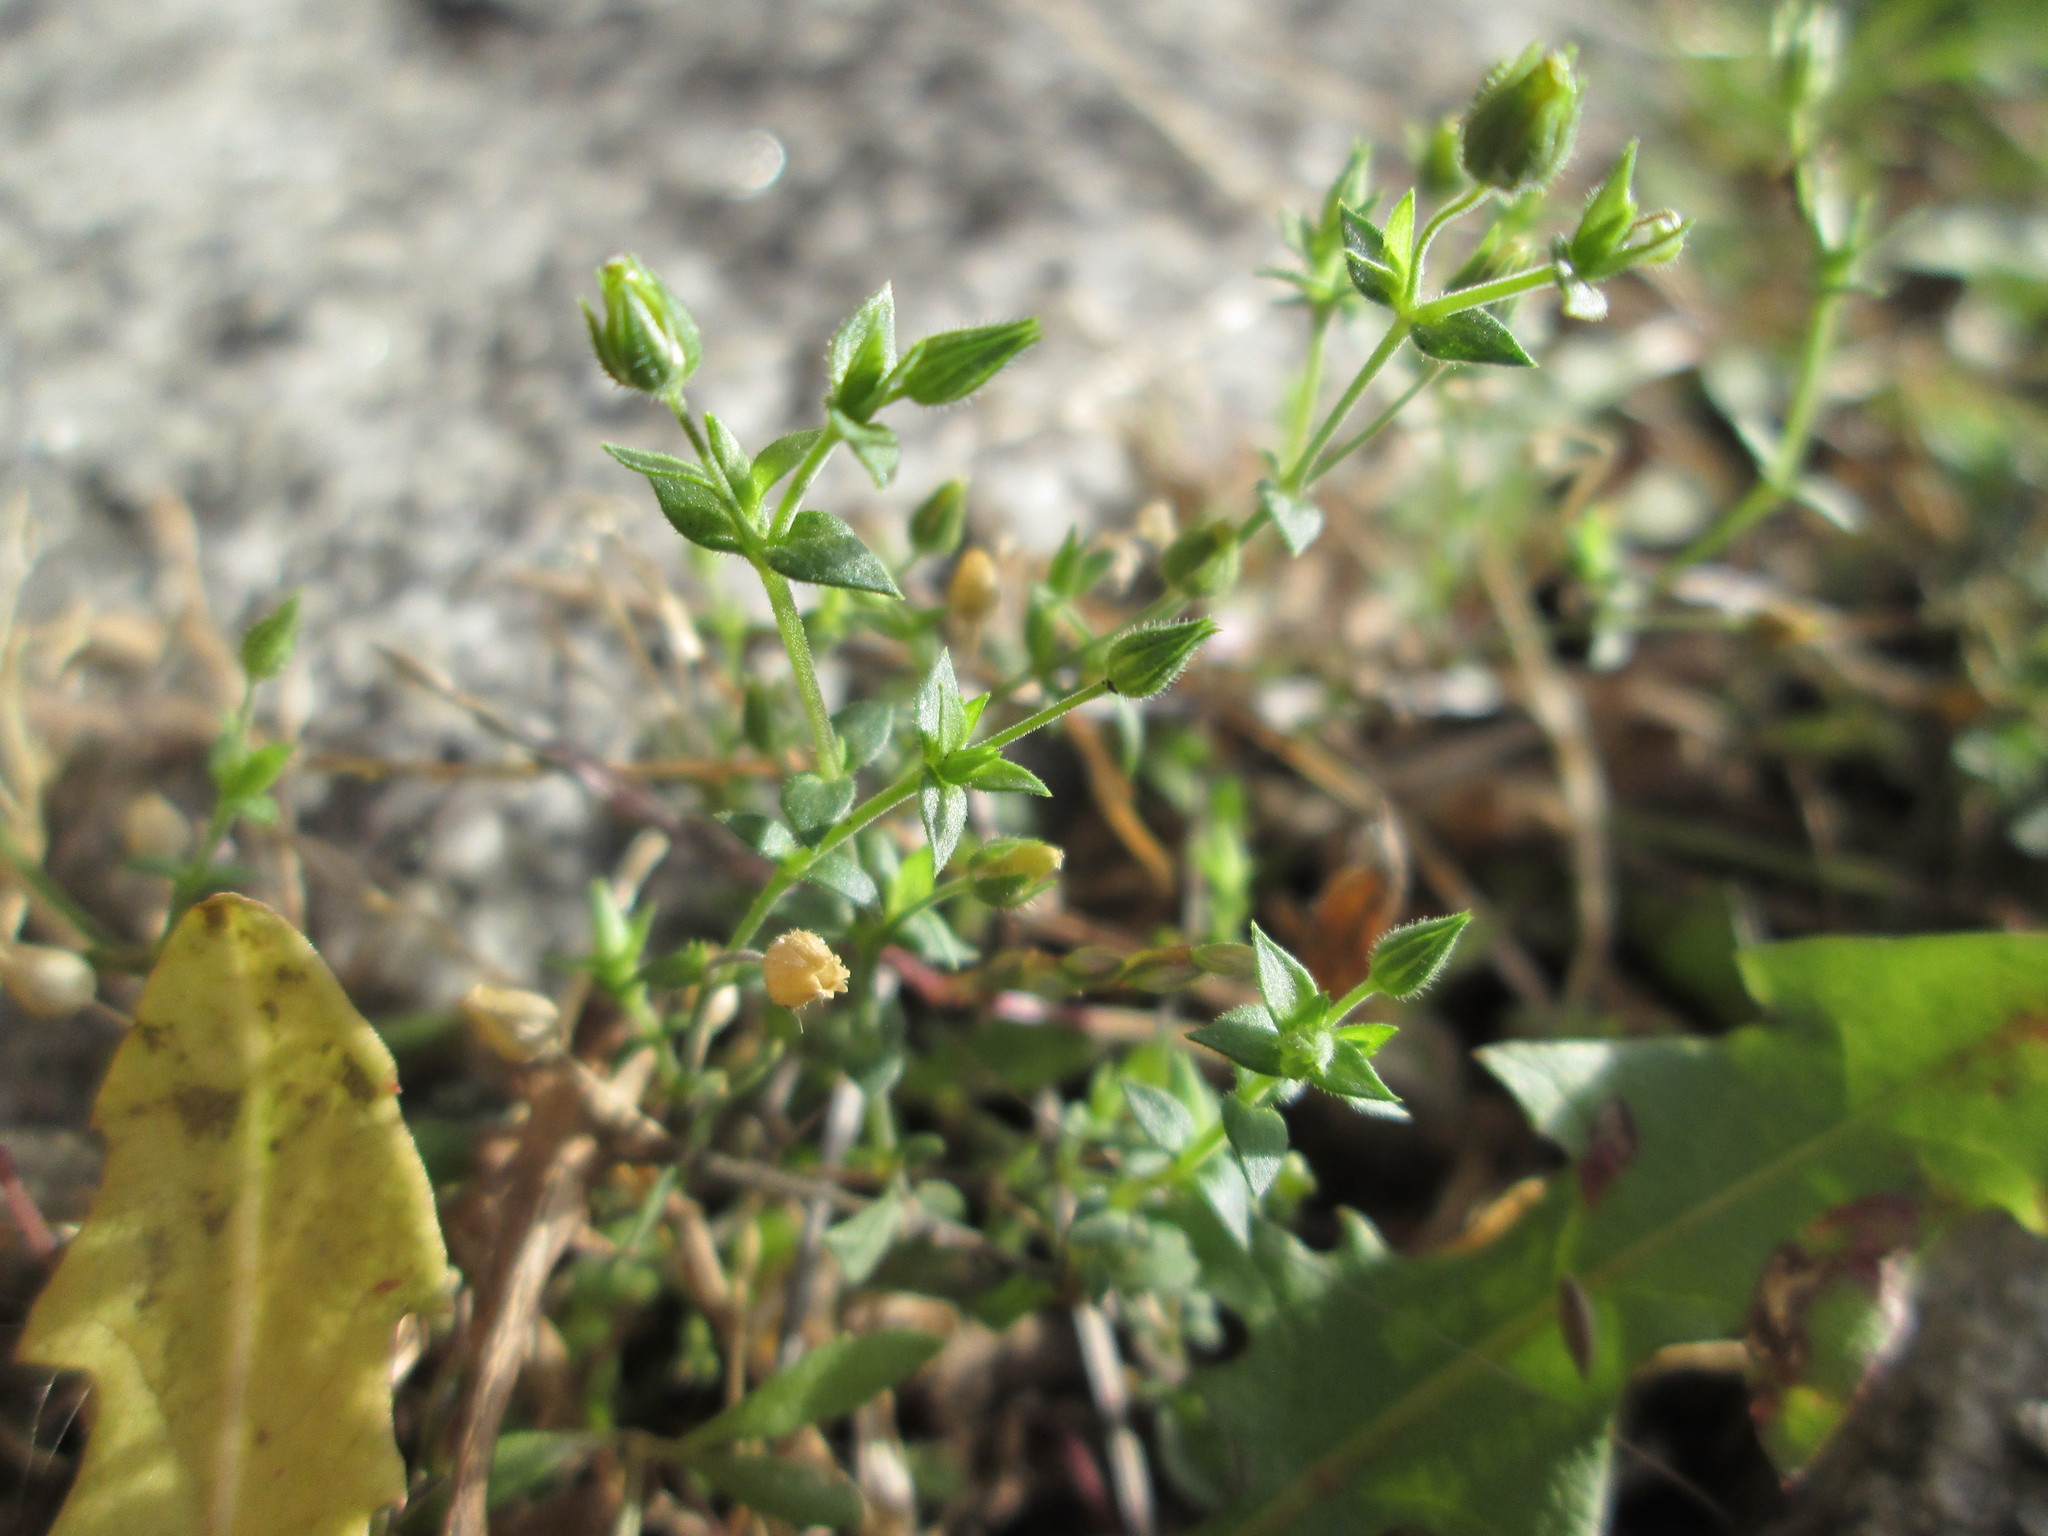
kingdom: Plantae
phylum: Tracheophyta
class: Magnoliopsida
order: Caryophyllales
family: Caryophyllaceae
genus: Arenaria
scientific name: Arenaria serpyllifolia
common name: Thyme-leaved sandwort
